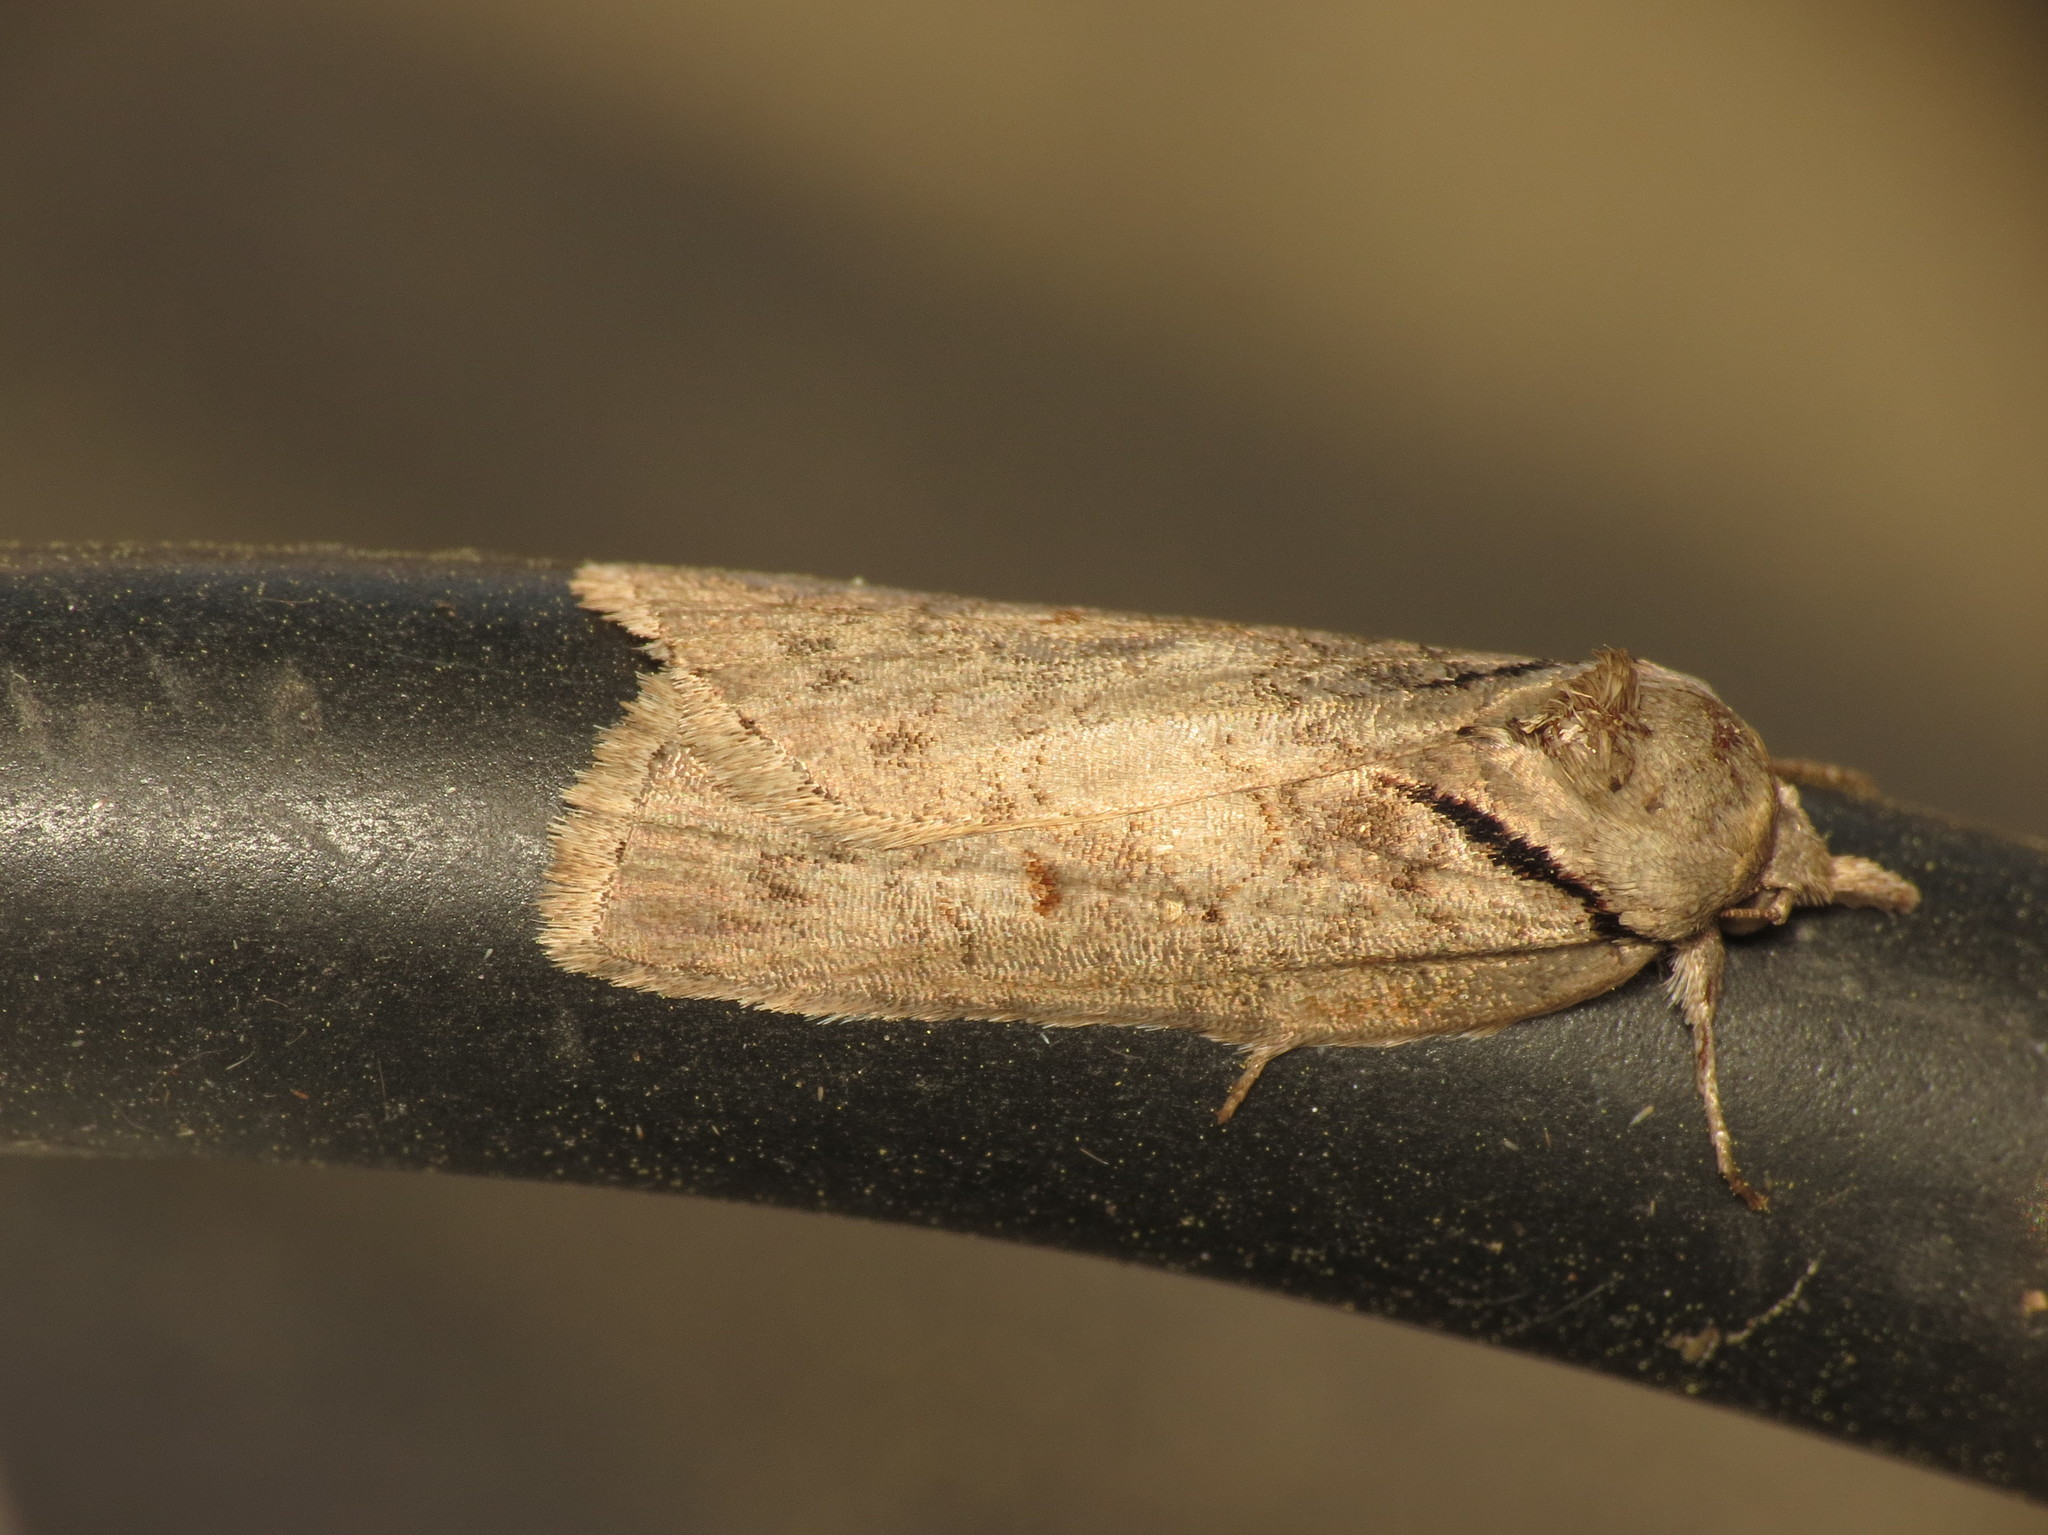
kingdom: Animalia
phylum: Arthropoda
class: Insecta
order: Lepidoptera
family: Nolidae
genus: Nycteola
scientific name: Nycteola revayana
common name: Oak nycteoline
